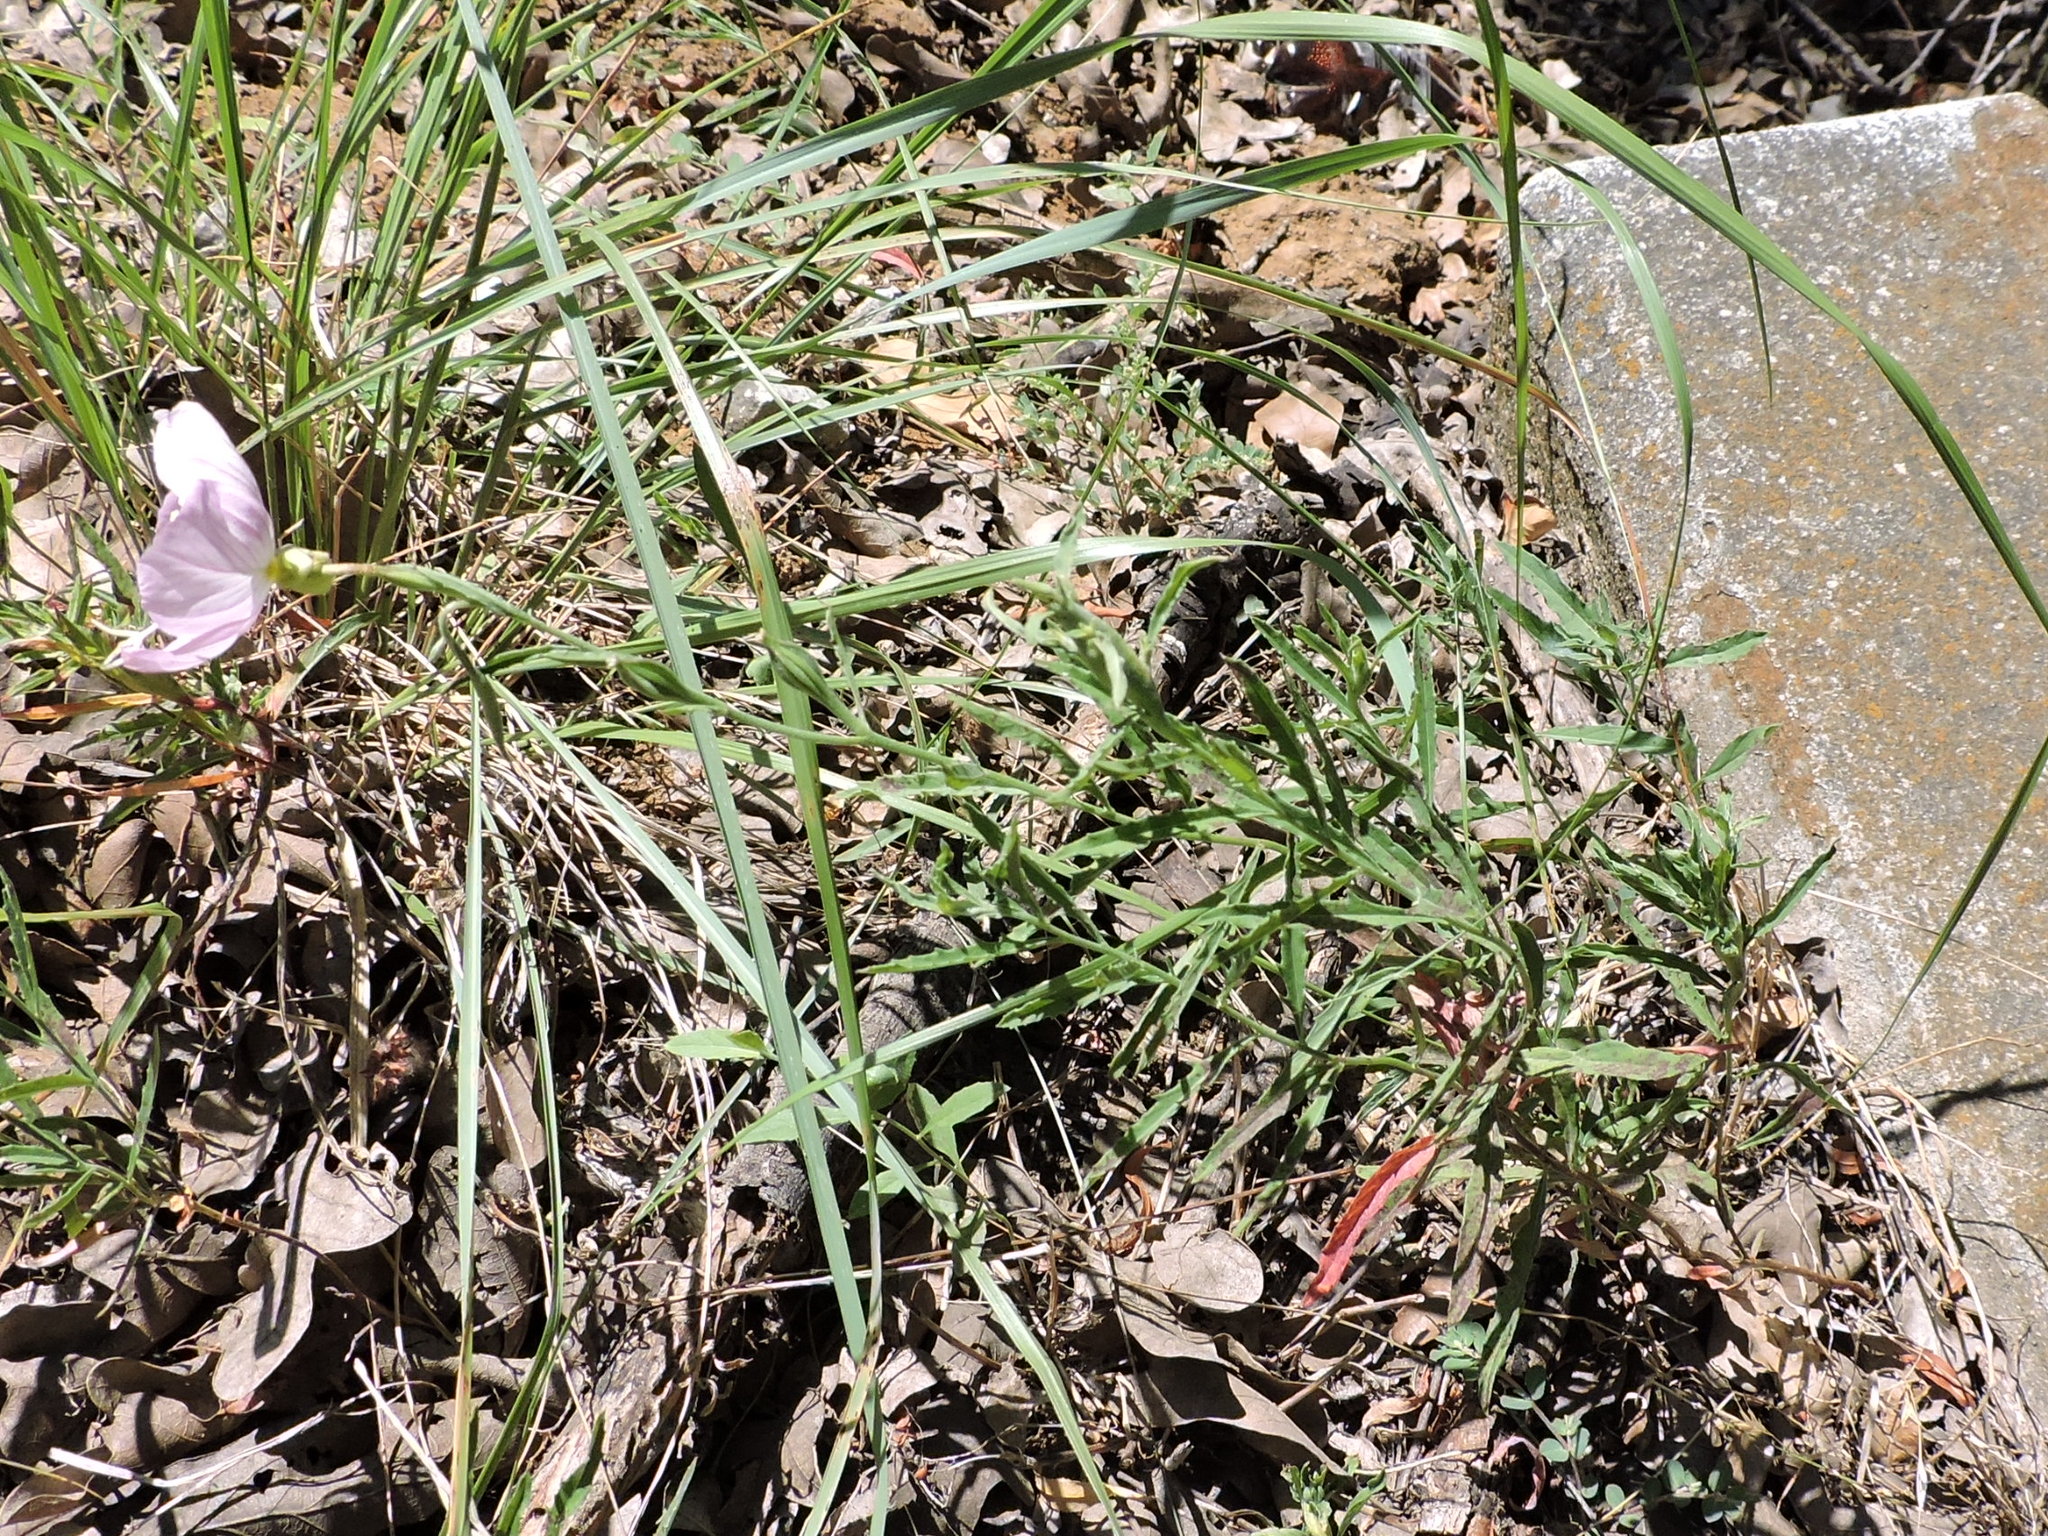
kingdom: Plantae
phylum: Tracheophyta
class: Magnoliopsida
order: Myrtales
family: Onagraceae
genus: Oenothera
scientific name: Oenothera speciosa
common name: White evening-primrose
